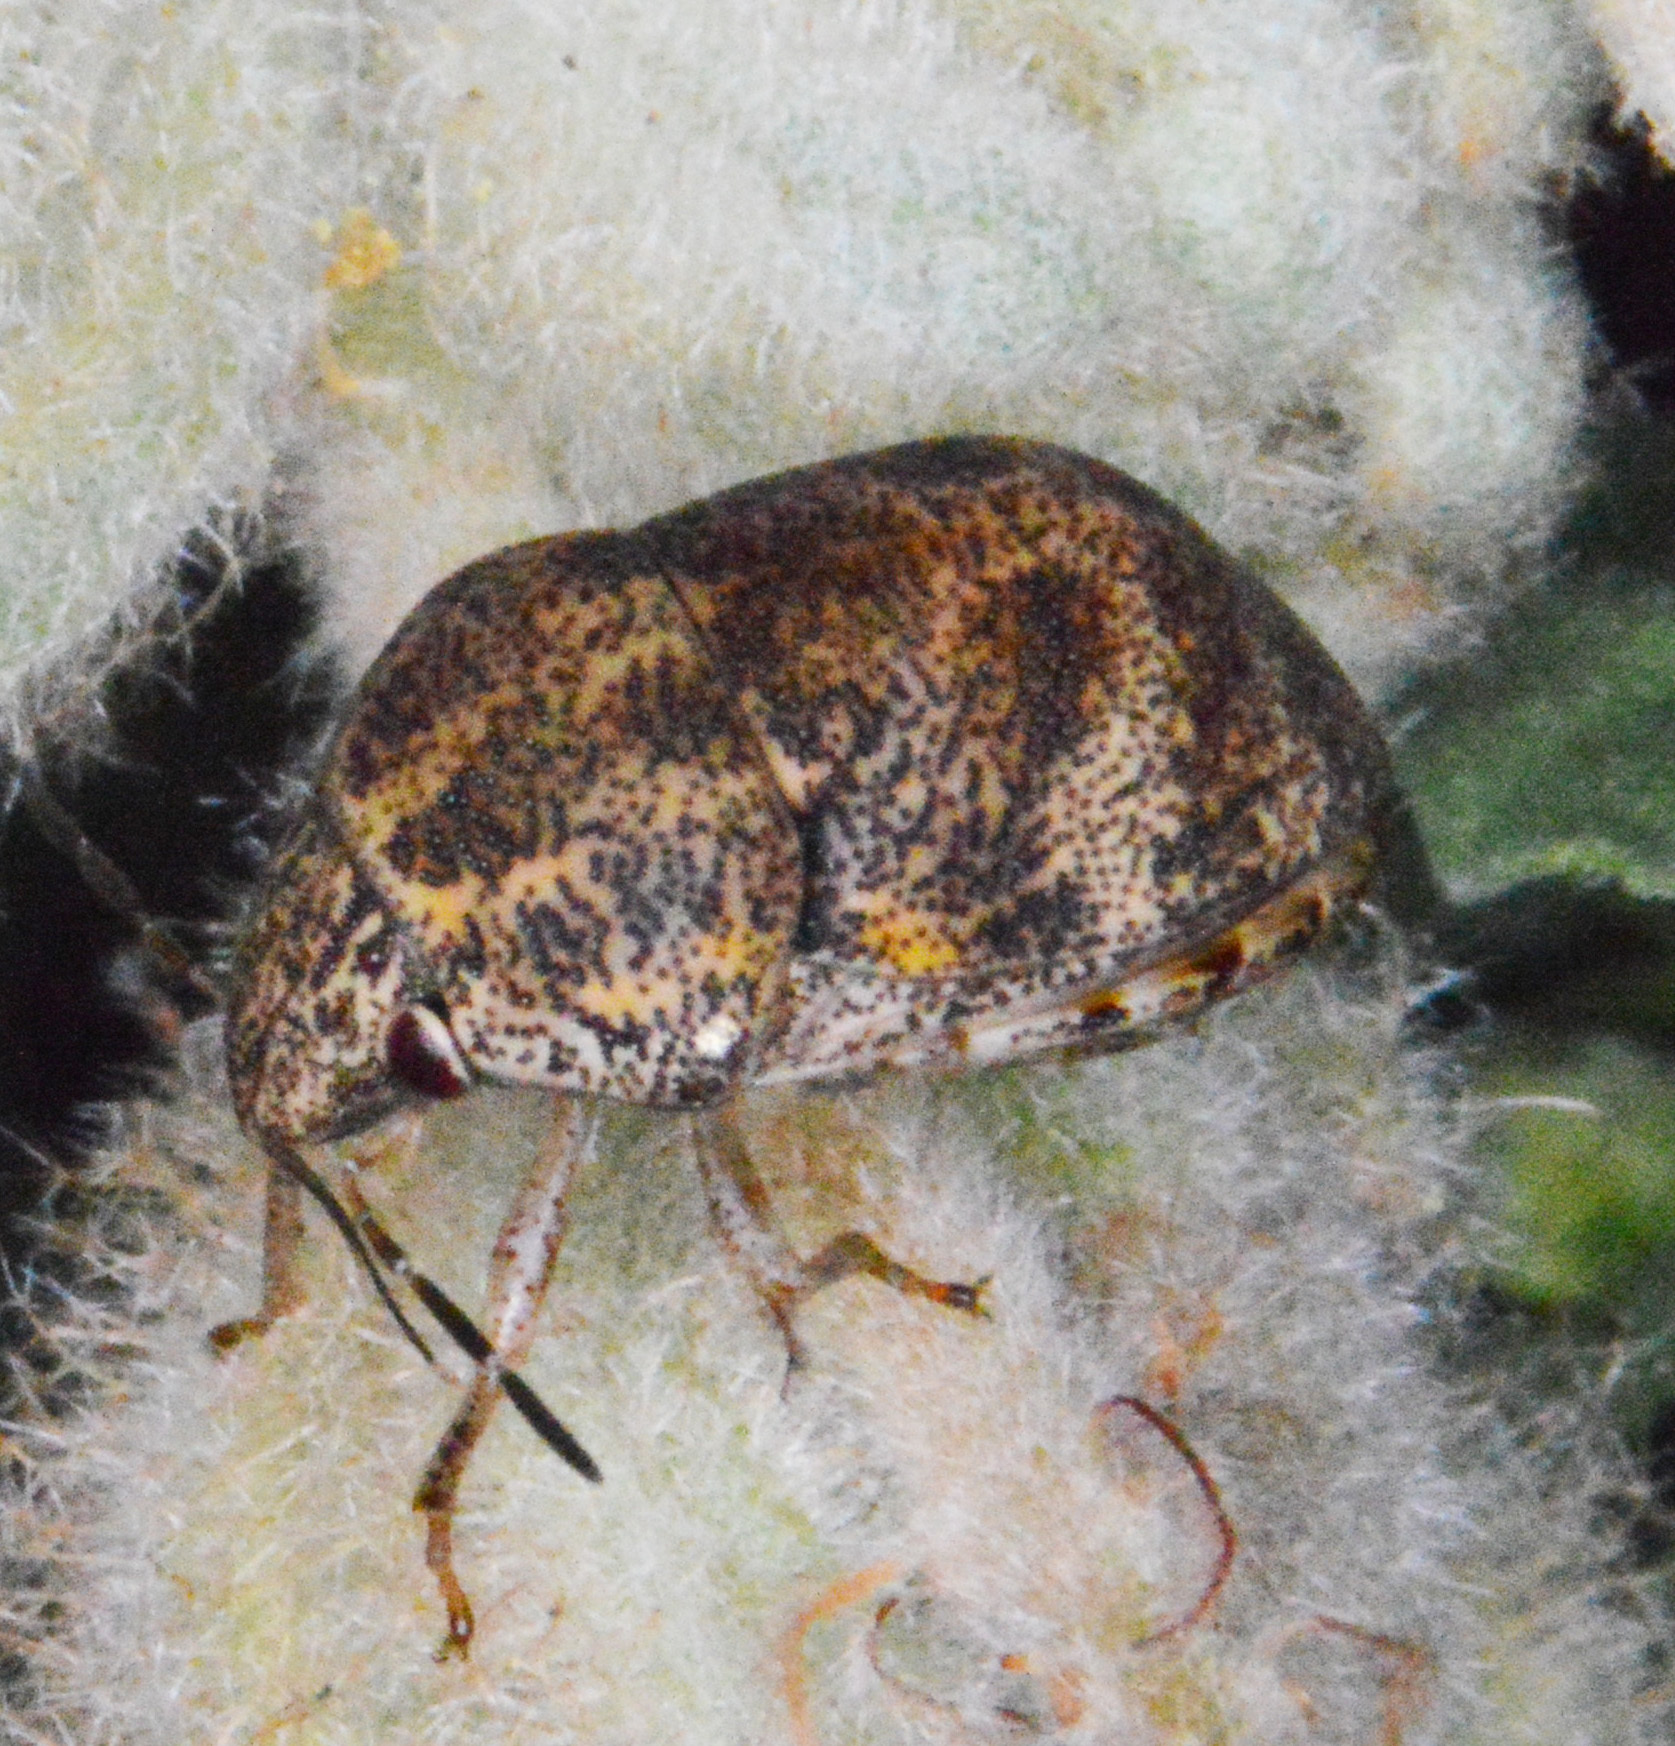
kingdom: Animalia
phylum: Arthropoda
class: Insecta
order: Hemiptera
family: Scutelleridae
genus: Orsilochides
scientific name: Orsilochides
